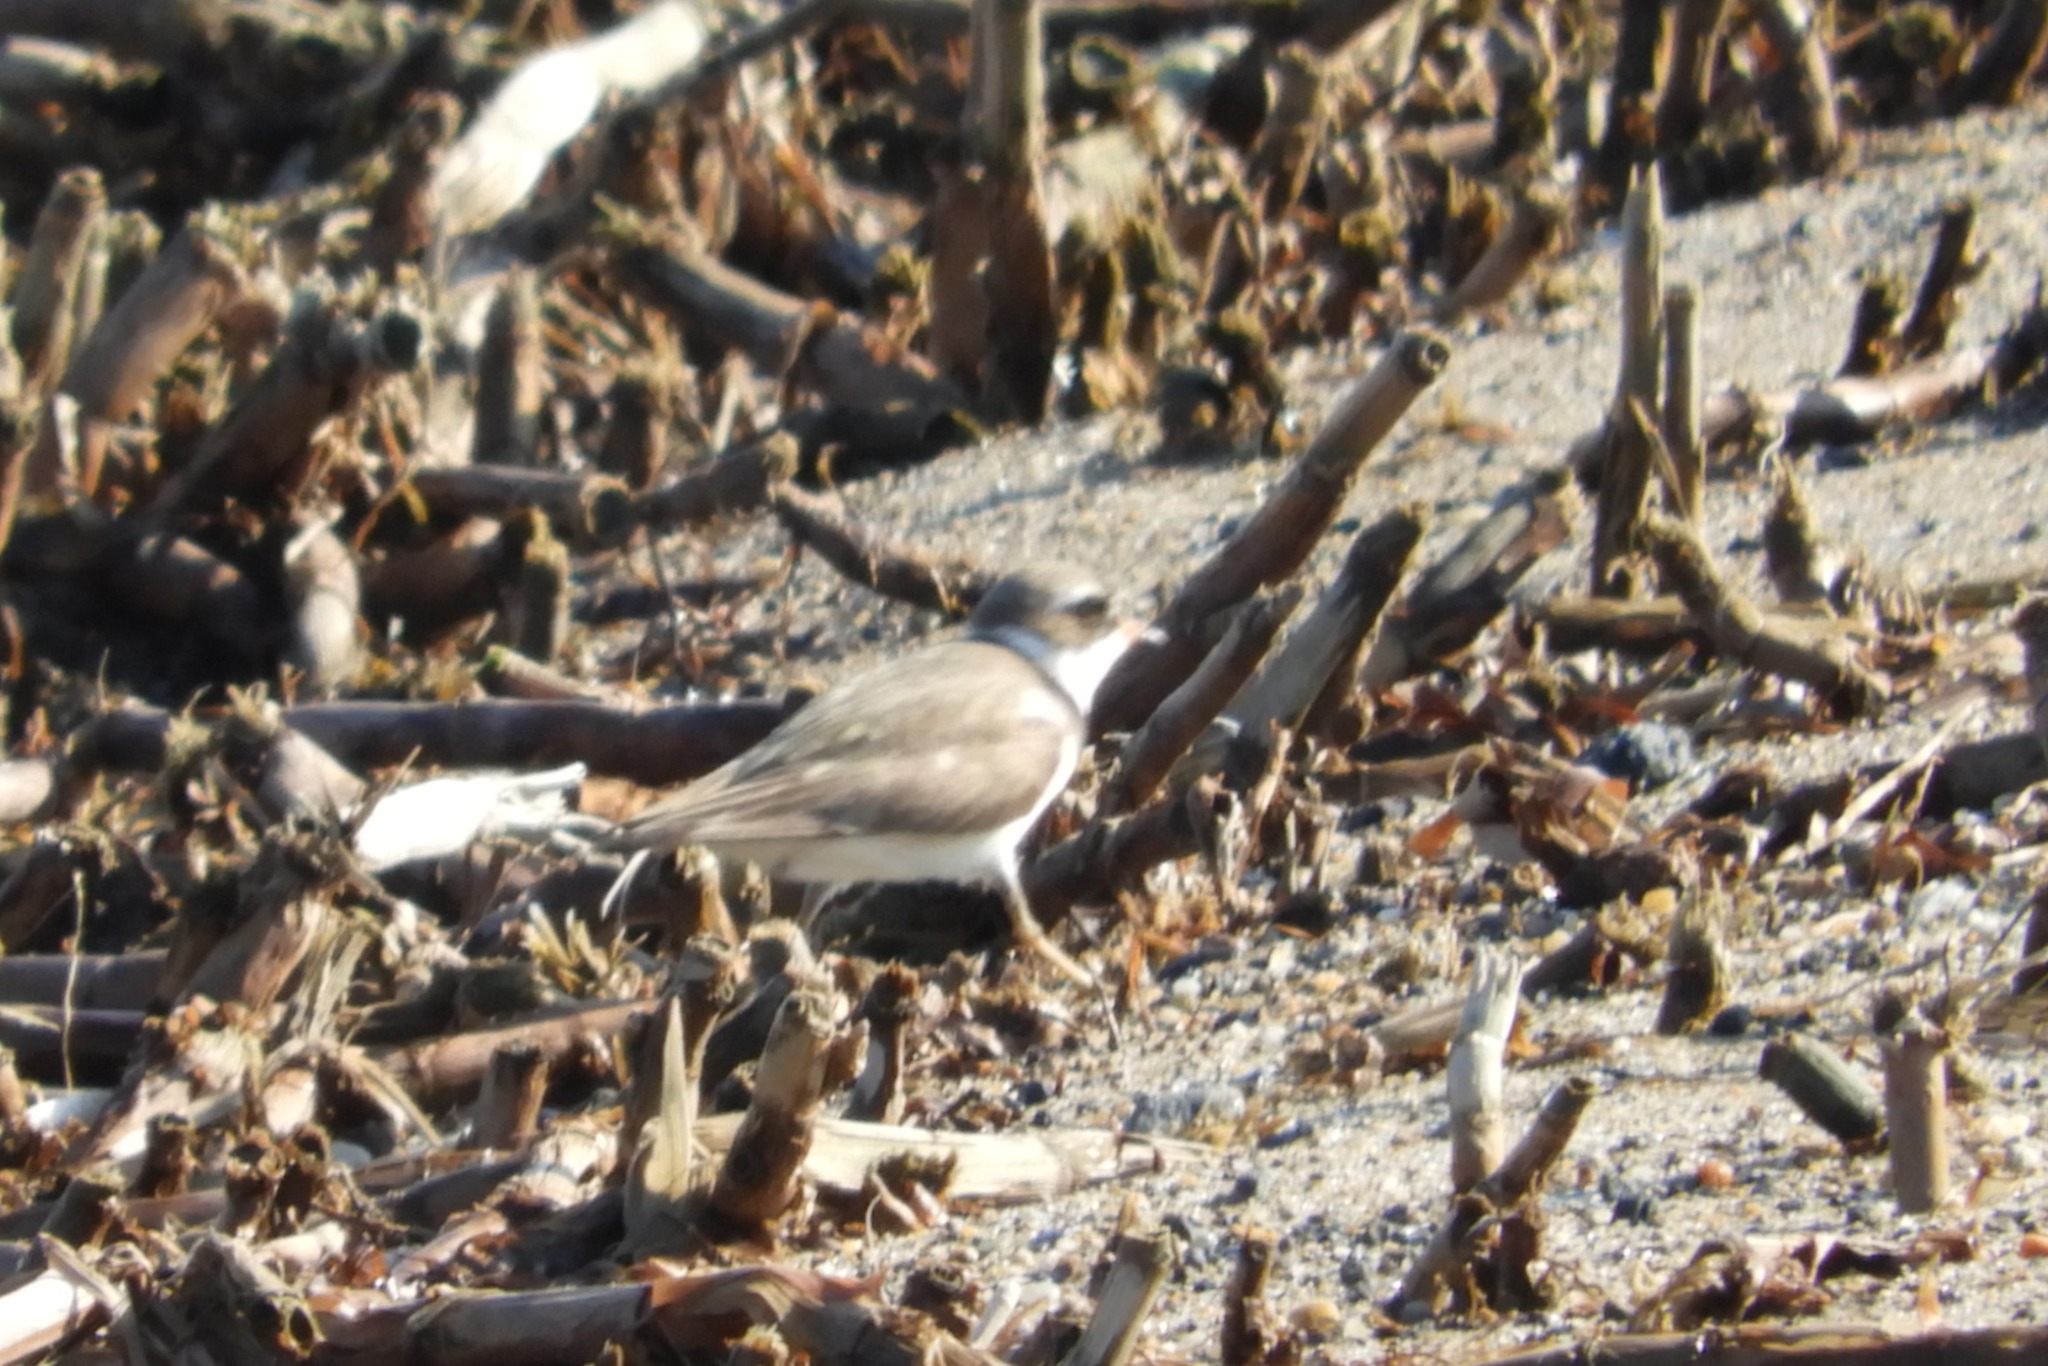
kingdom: Animalia
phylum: Chordata
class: Aves
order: Charadriiformes
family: Charadriidae
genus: Charadrius
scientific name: Charadrius semipalmatus
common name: Semipalmated plover
